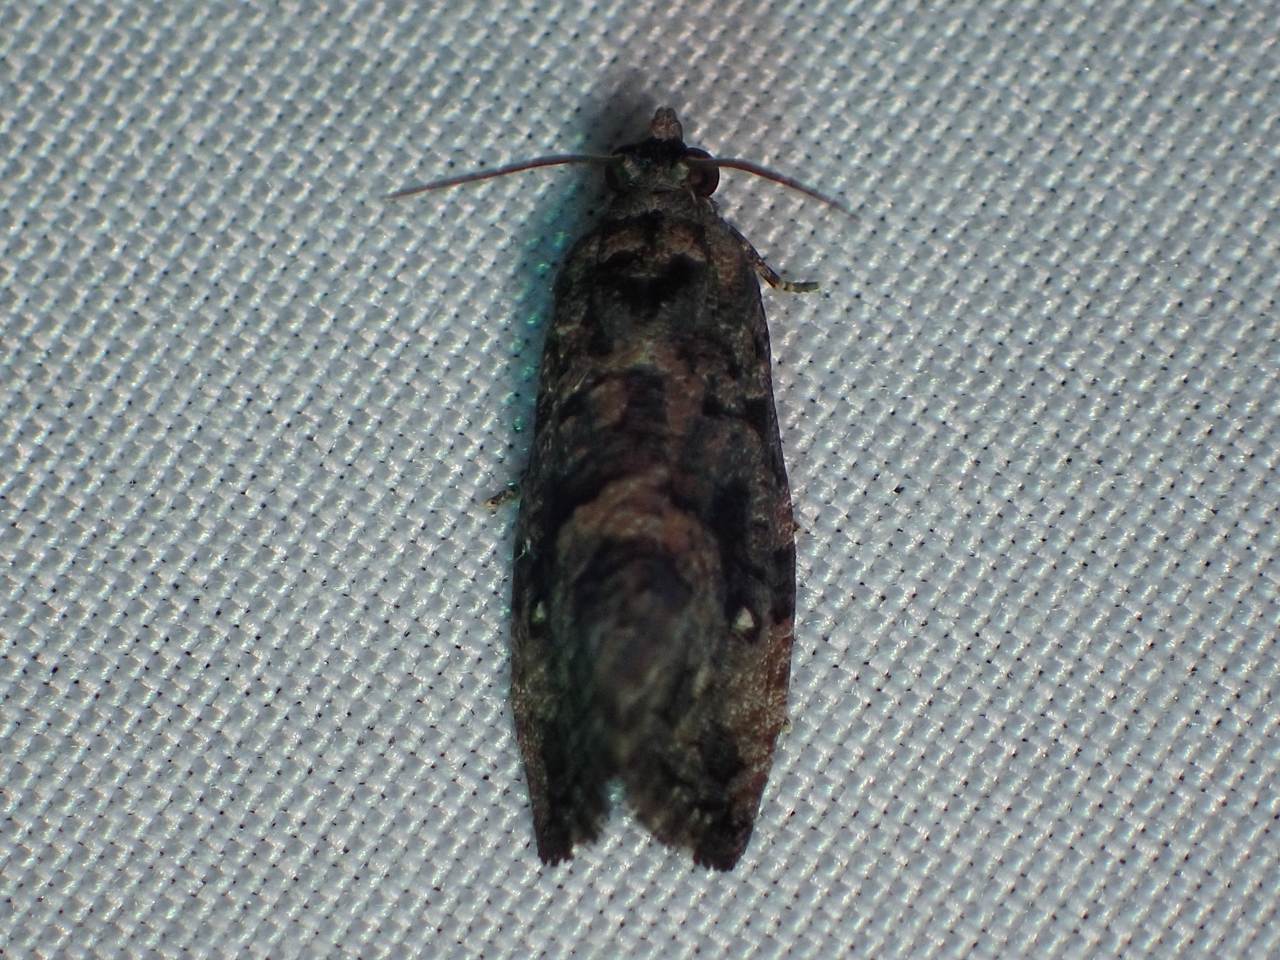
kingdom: Animalia
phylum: Arthropoda
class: Insecta
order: Lepidoptera
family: Tortricidae
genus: Gymnandrosoma
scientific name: Gymnandrosoma punctidiscanum
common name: Dotted ecdytolopha moth
